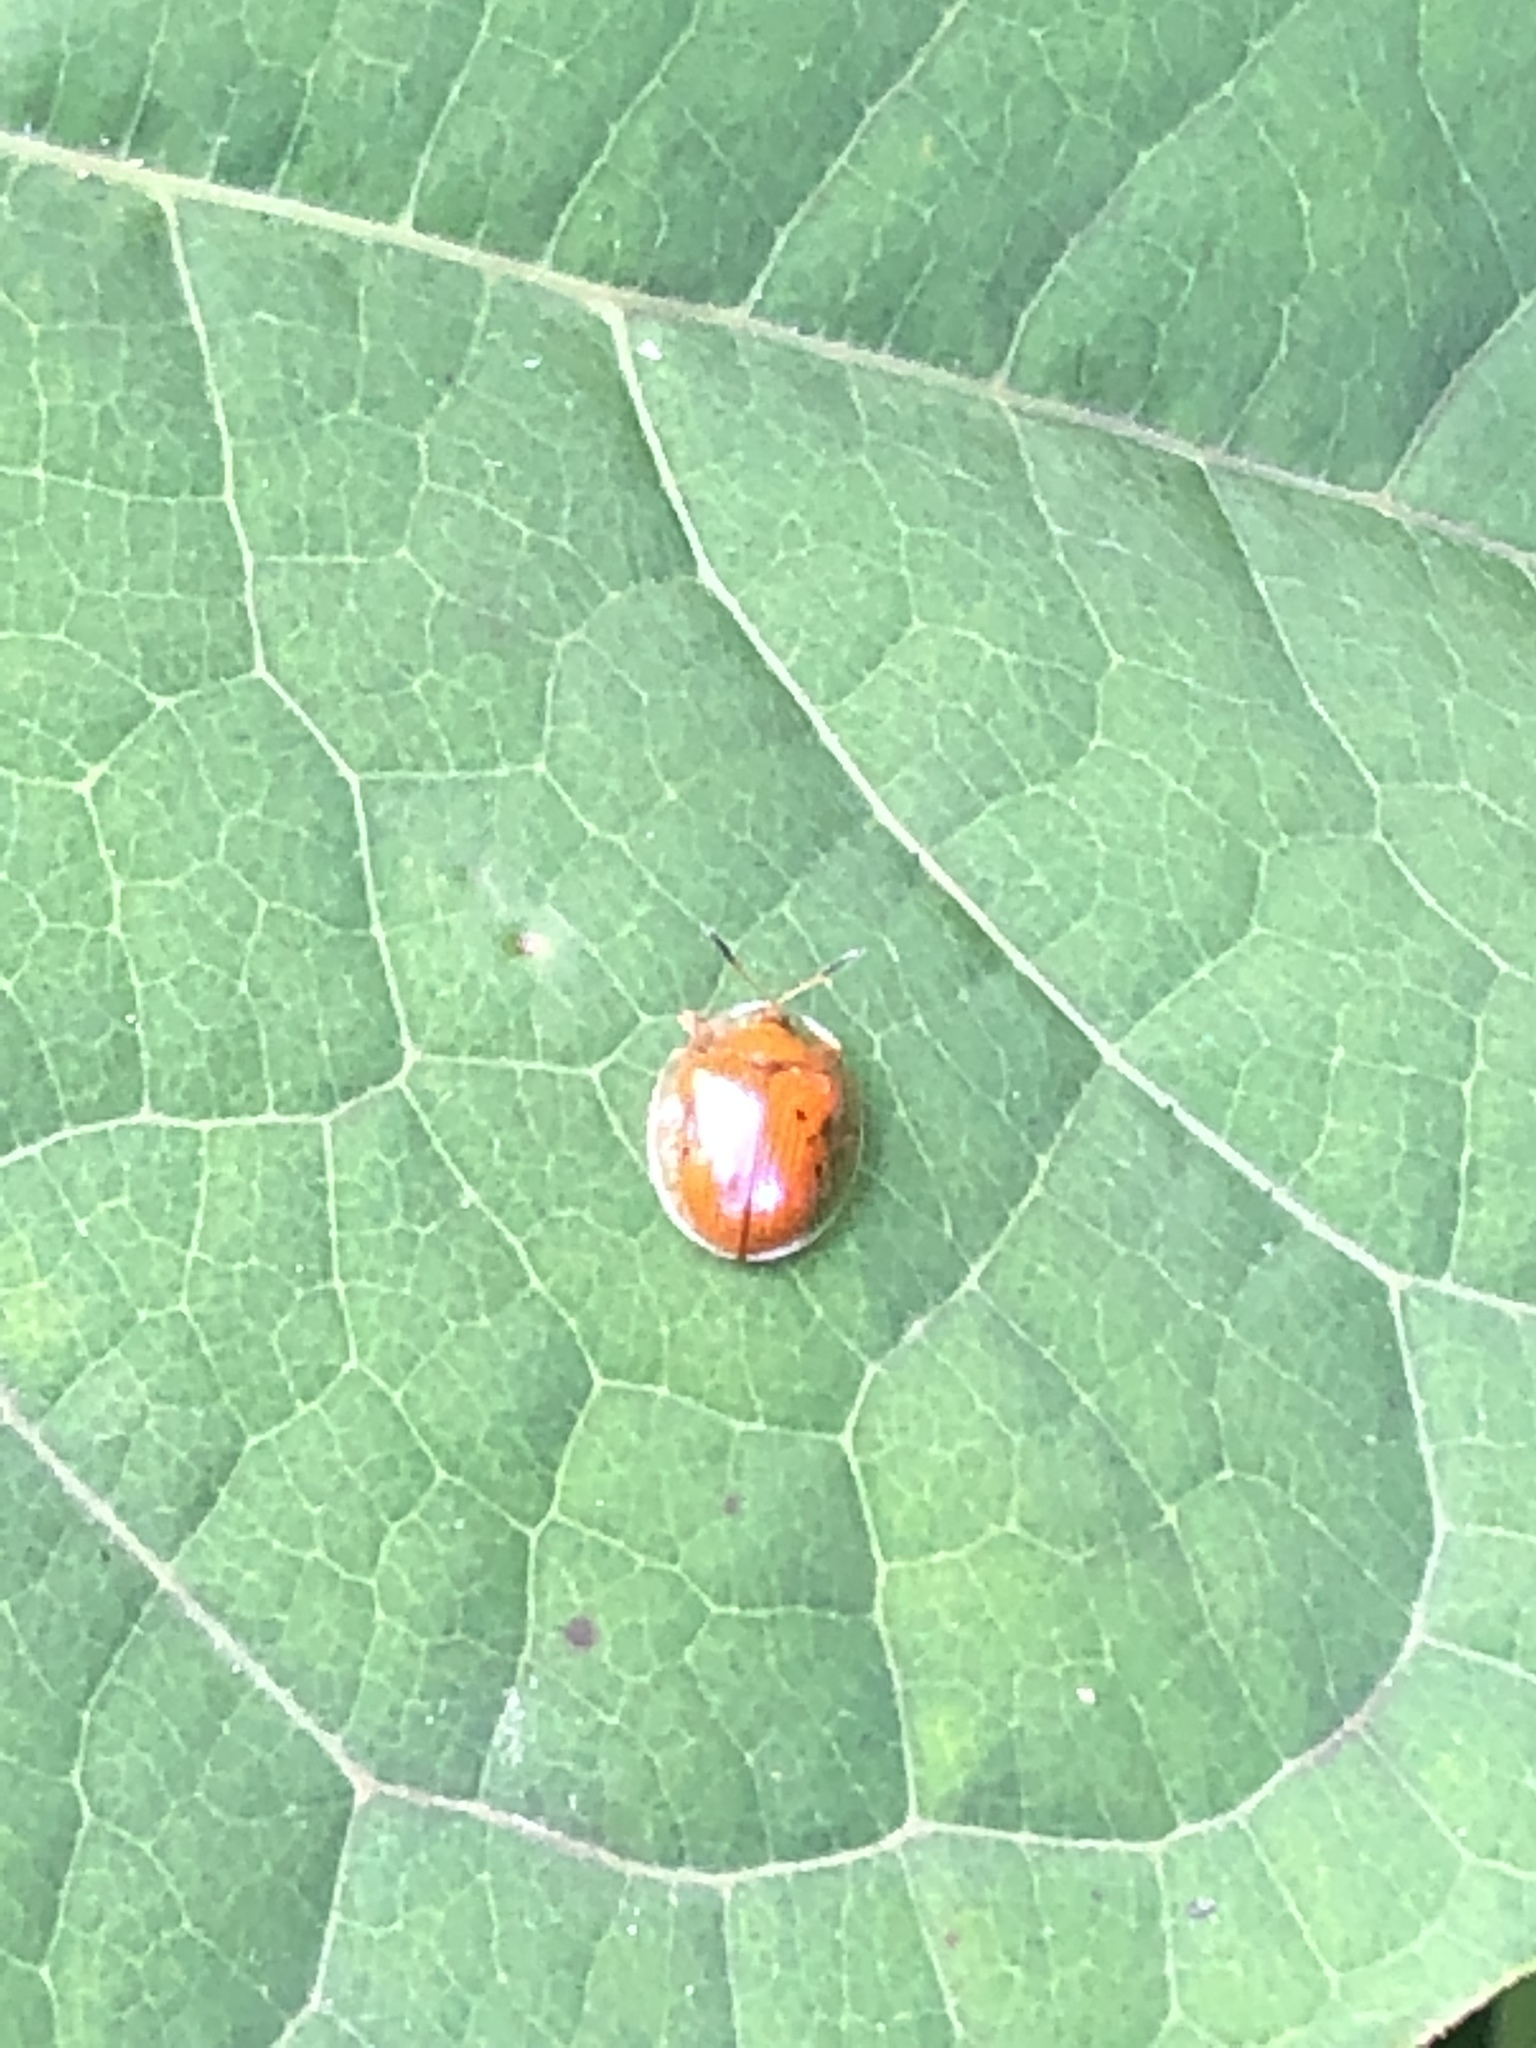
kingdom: Animalia
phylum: Arthropoda
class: Insecta
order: Coleoptera
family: Chrysomelidae
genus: Charidotella
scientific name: Charidotella sexpunctata
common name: Golden tortoise beetle
